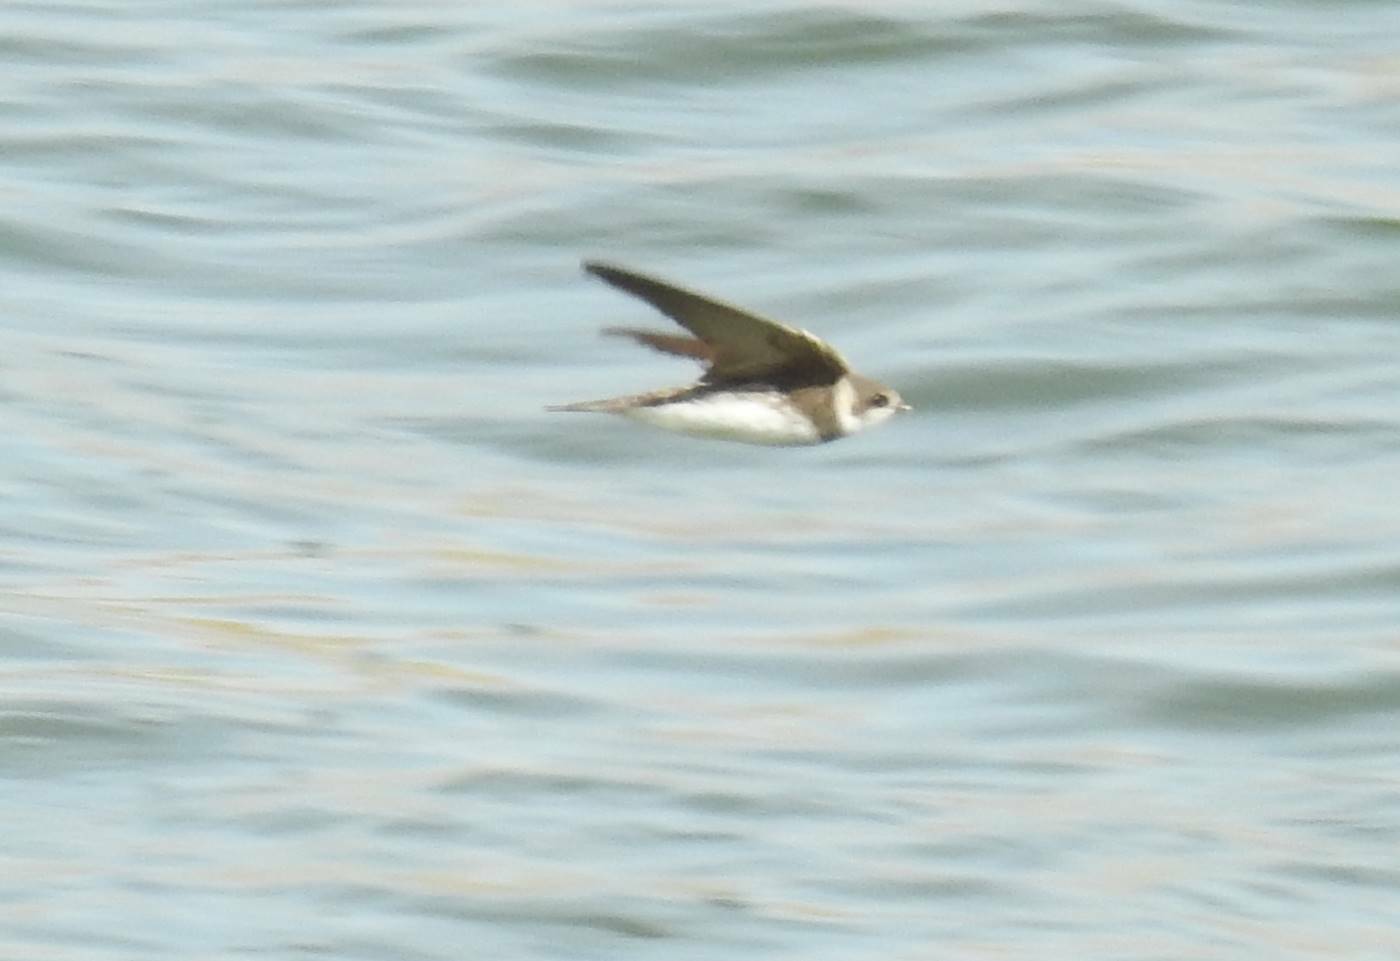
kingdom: Animalia
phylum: Chordata
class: Aves
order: Passeriformes
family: Hirundinidae
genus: Riparia
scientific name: Riparia riparia
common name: Sand martin
